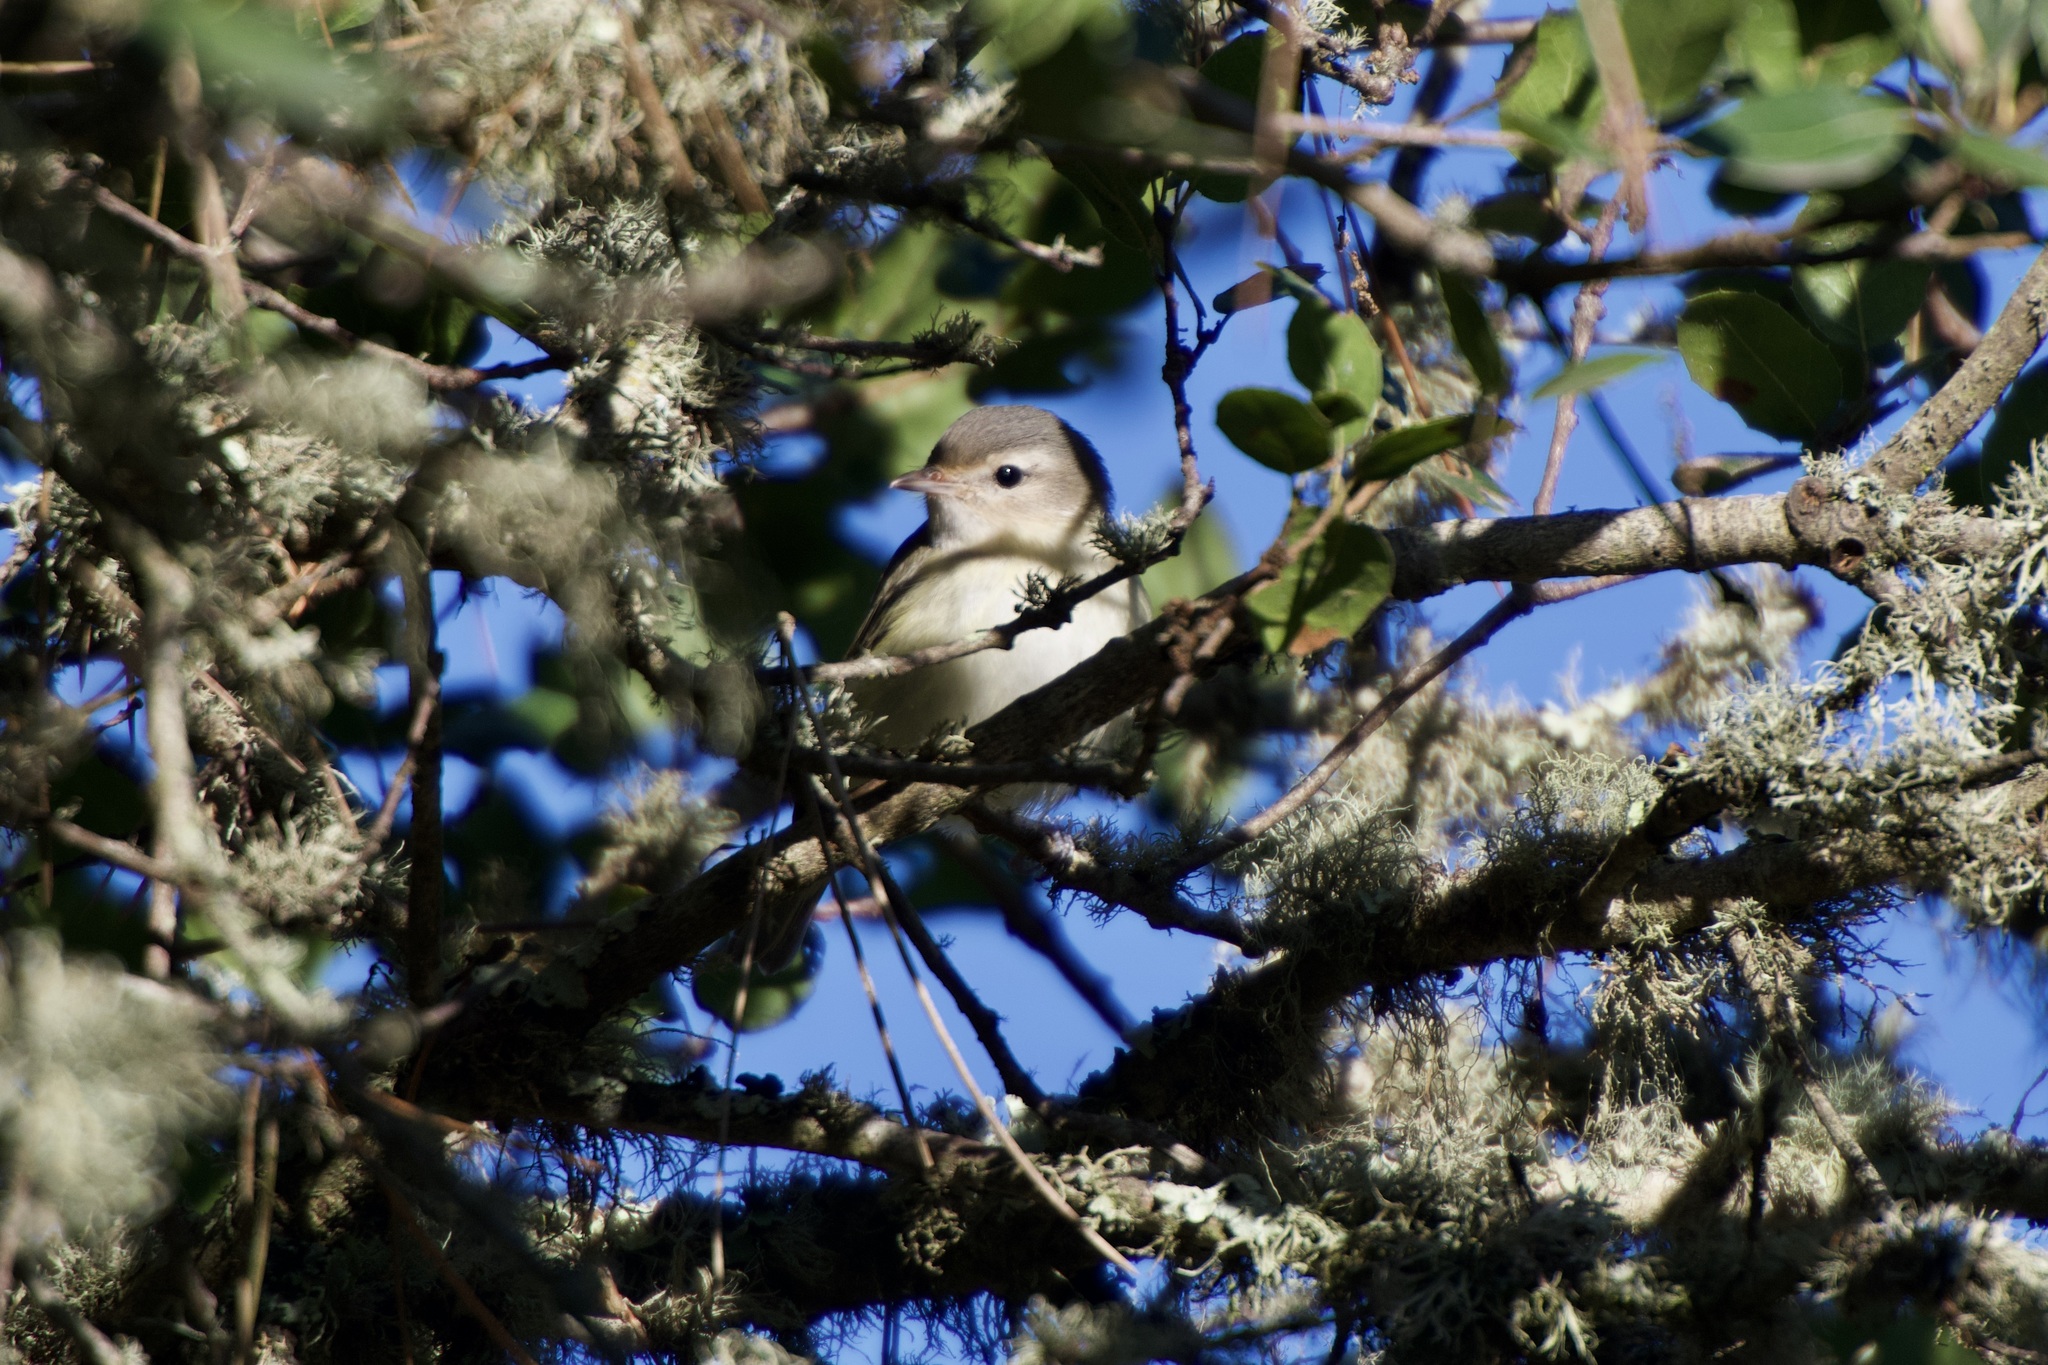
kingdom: Animalia
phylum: Chordata
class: Aves
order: Passeriformes
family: Vireonidae
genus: Vireo
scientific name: Vireo gilvus
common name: Warbling vireo
